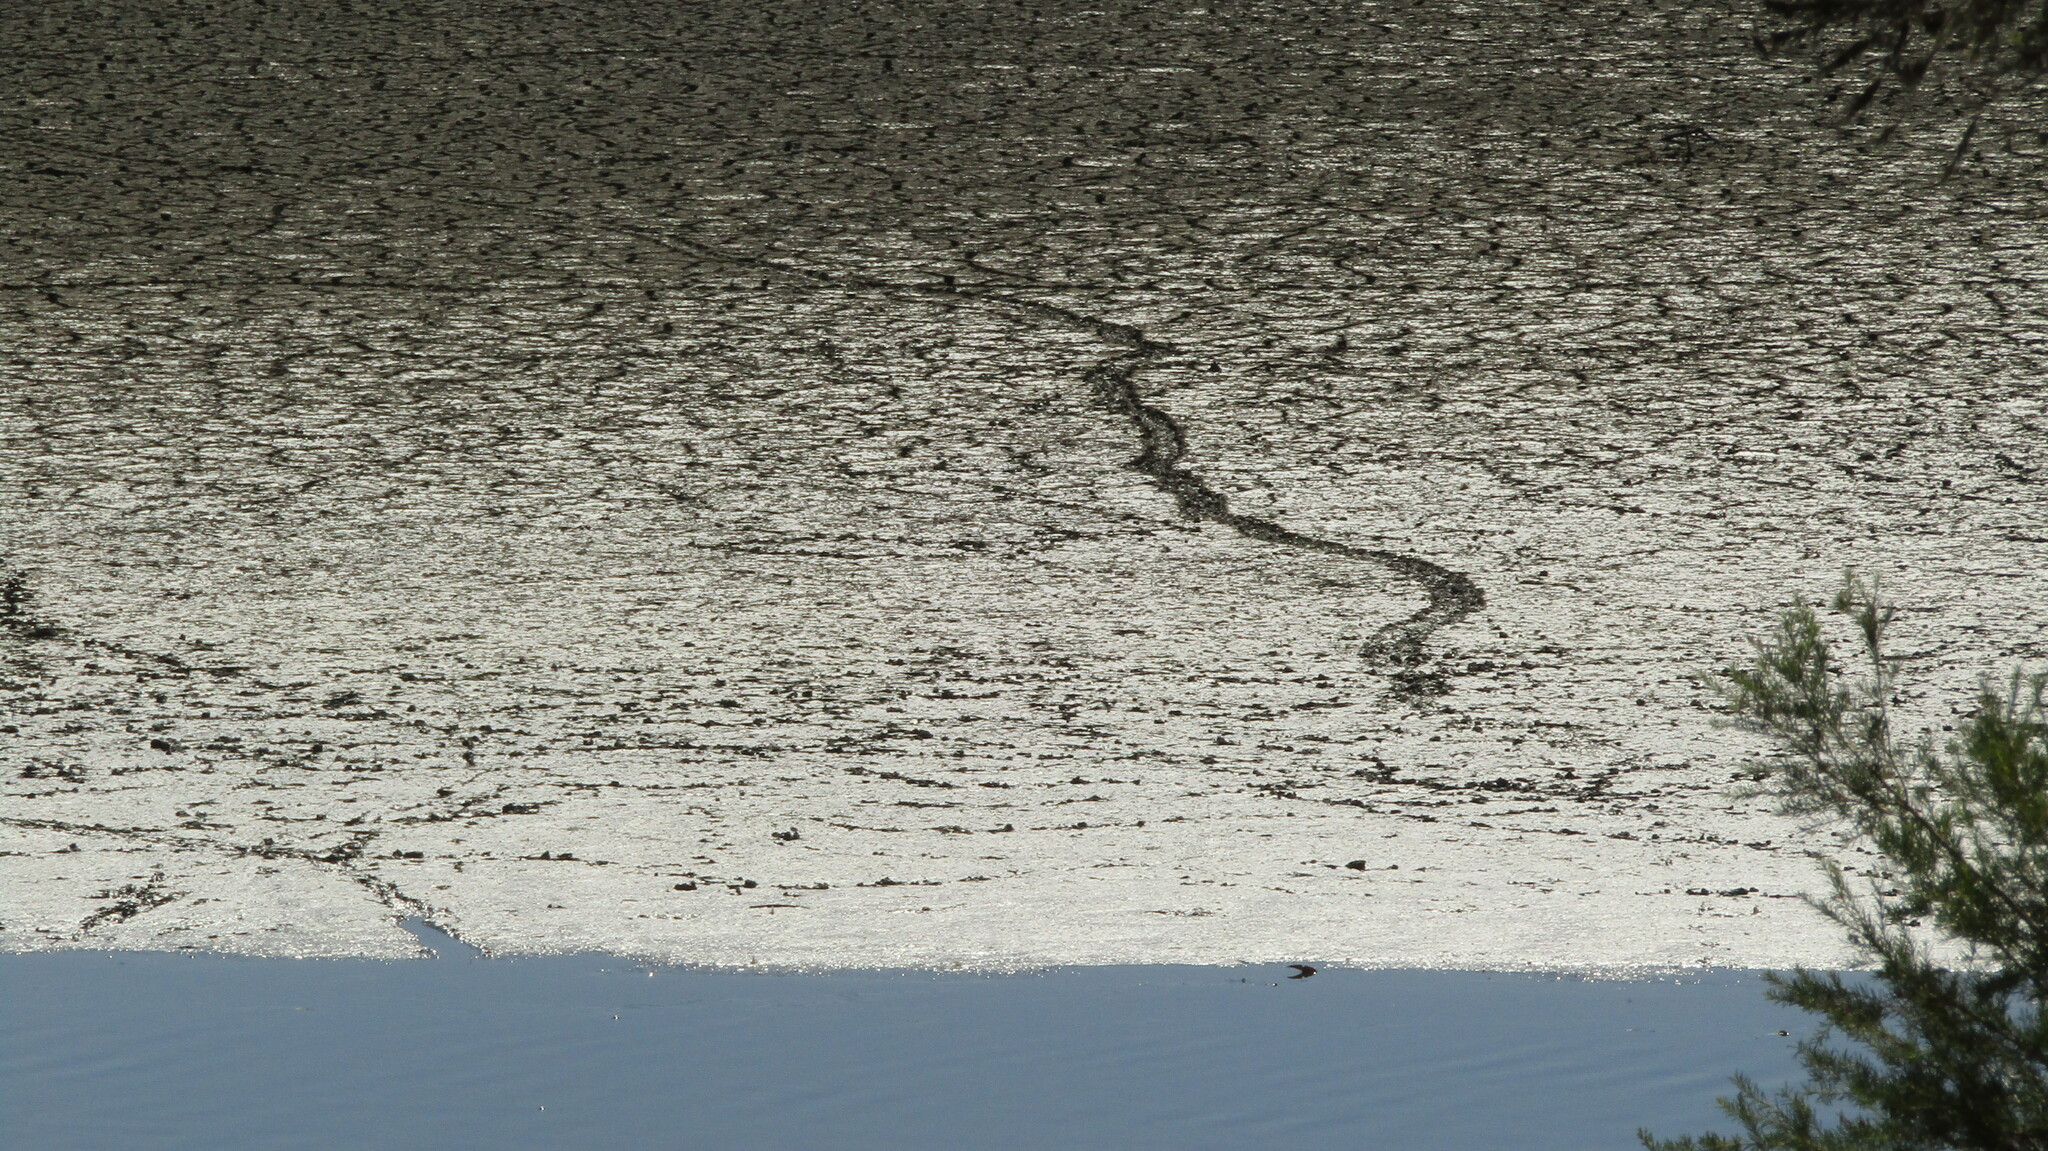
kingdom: Animalia
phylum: Chordata
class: Testudines
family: Chelidae
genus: Chelodina
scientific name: Chelodina oblonga
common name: Northern snake-necked turtle
